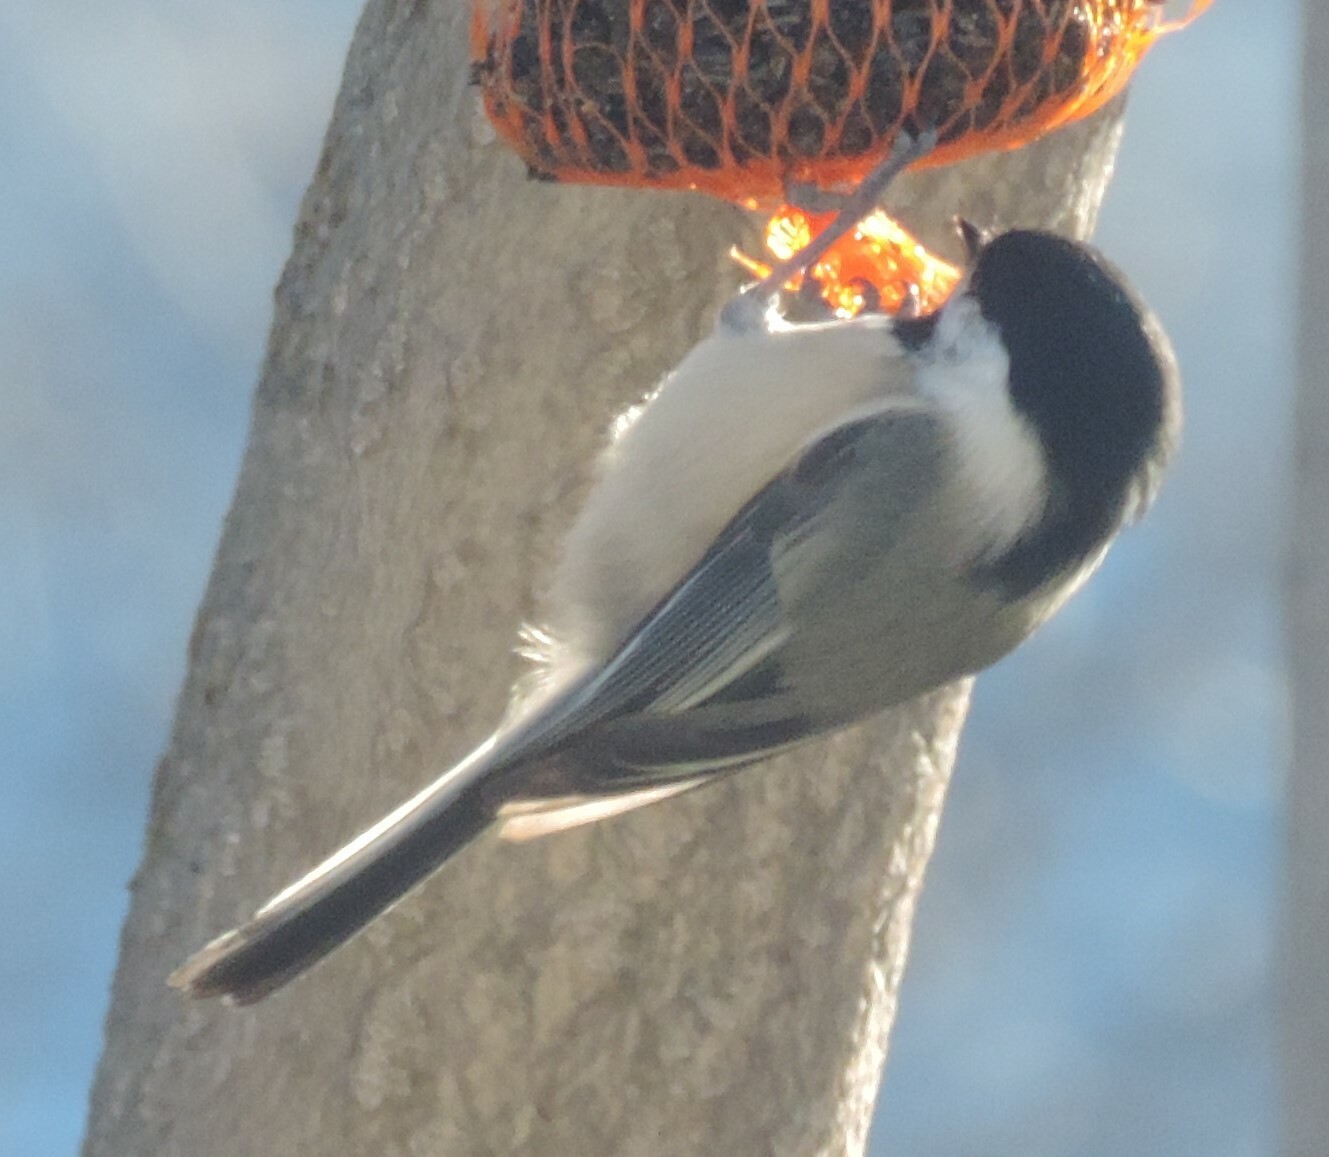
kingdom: Animalia
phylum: Chordata
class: Aves
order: Passeriformes
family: Paridae
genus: Poecile
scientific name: Poecile atricapillus
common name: Black-capped chickadee
